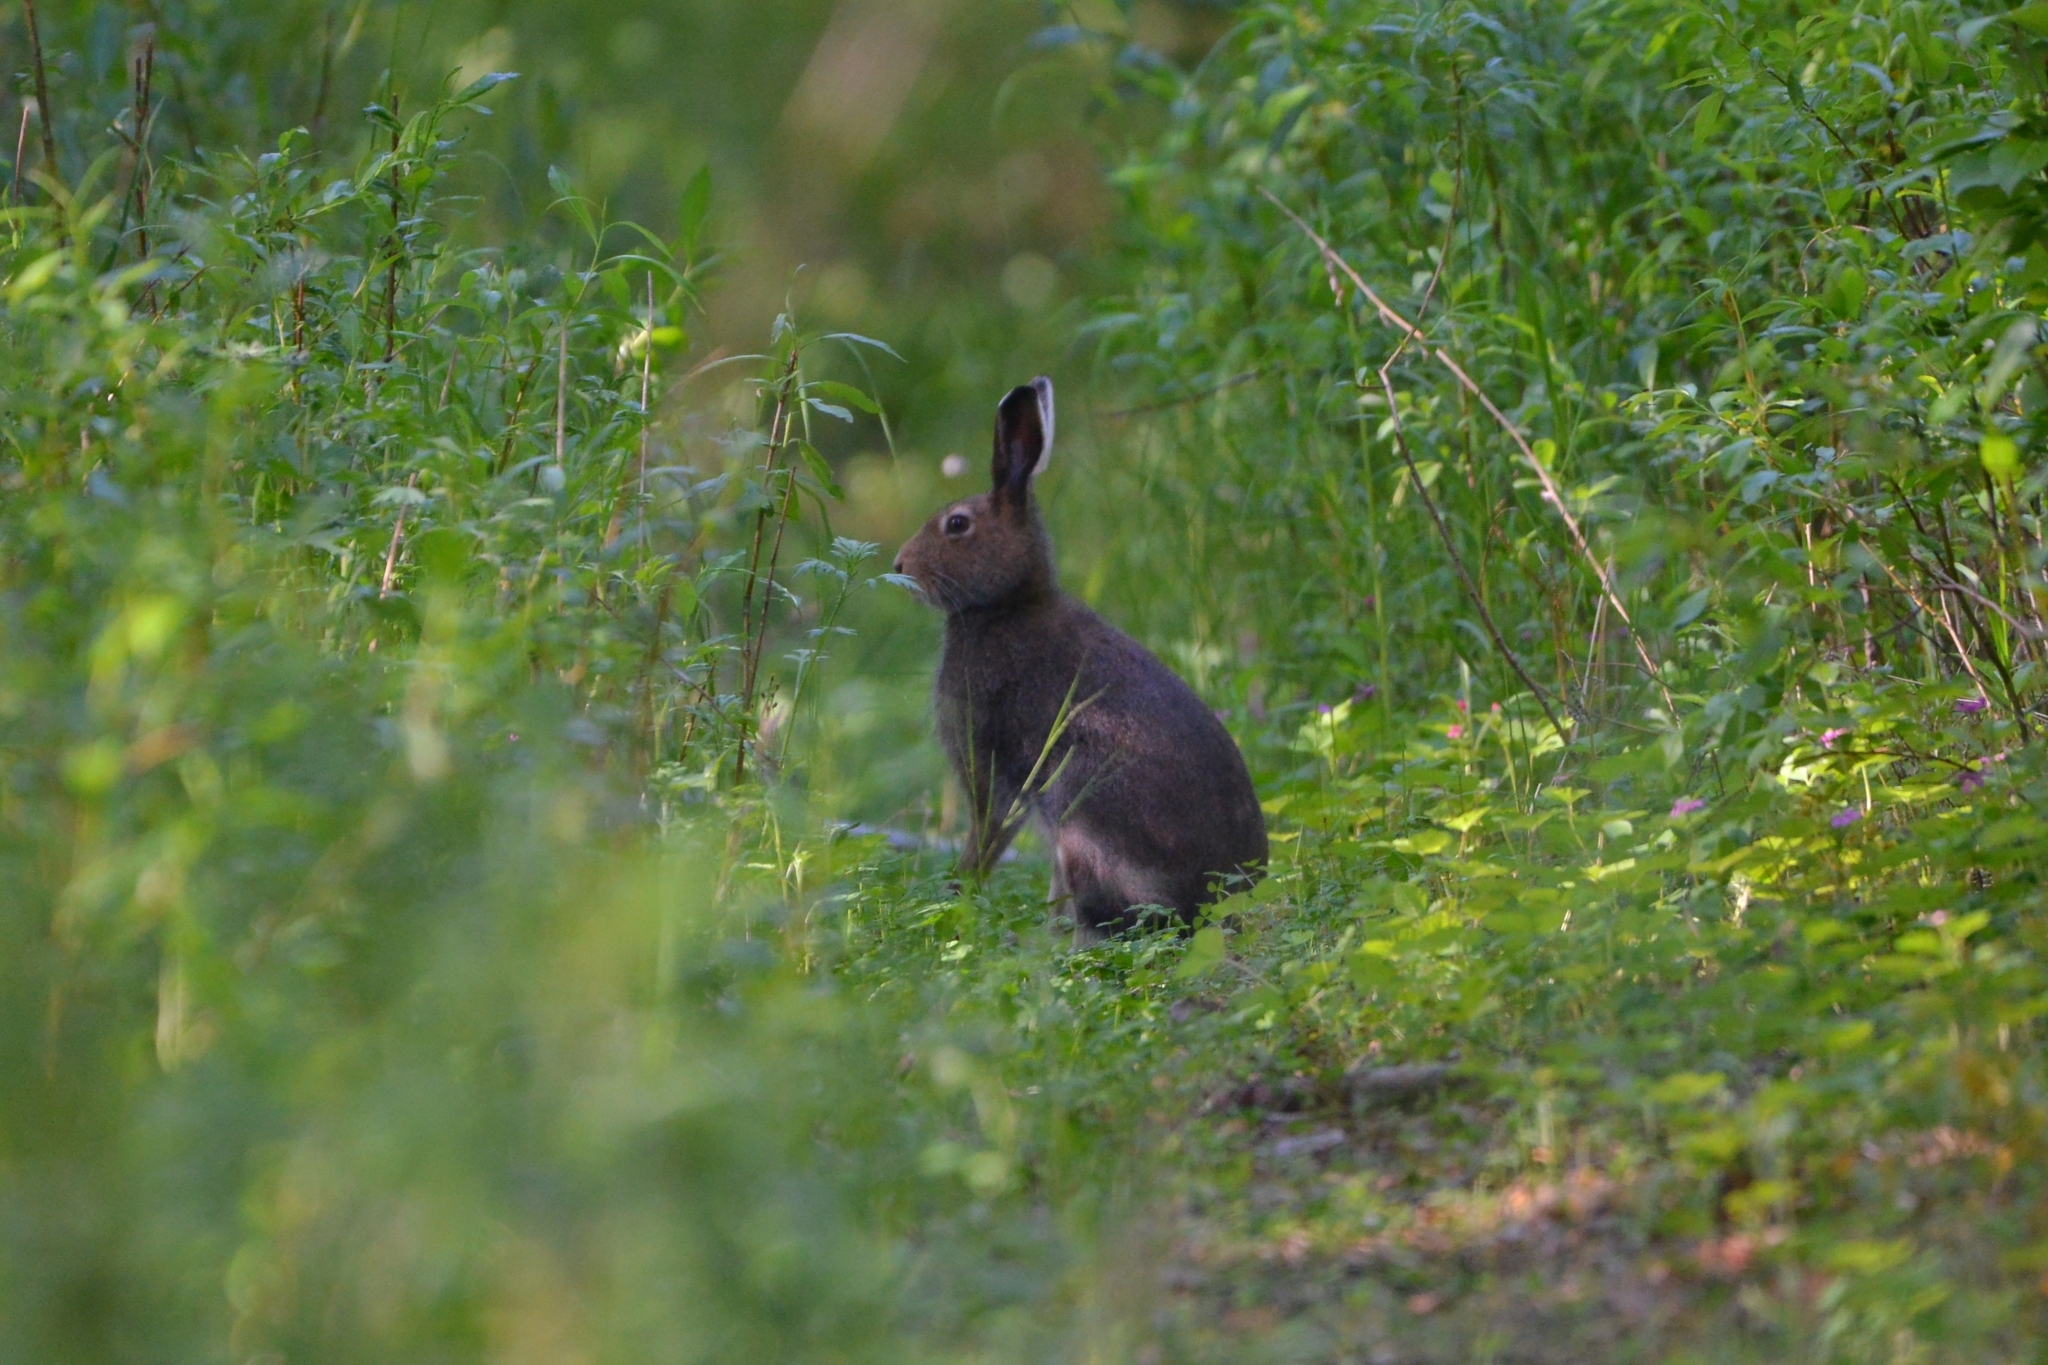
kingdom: Animalia
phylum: Chordata
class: Mammalia
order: Lagomorpha
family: Leporidae
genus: Lepus
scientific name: Lepus timidus
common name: Mountain hare
